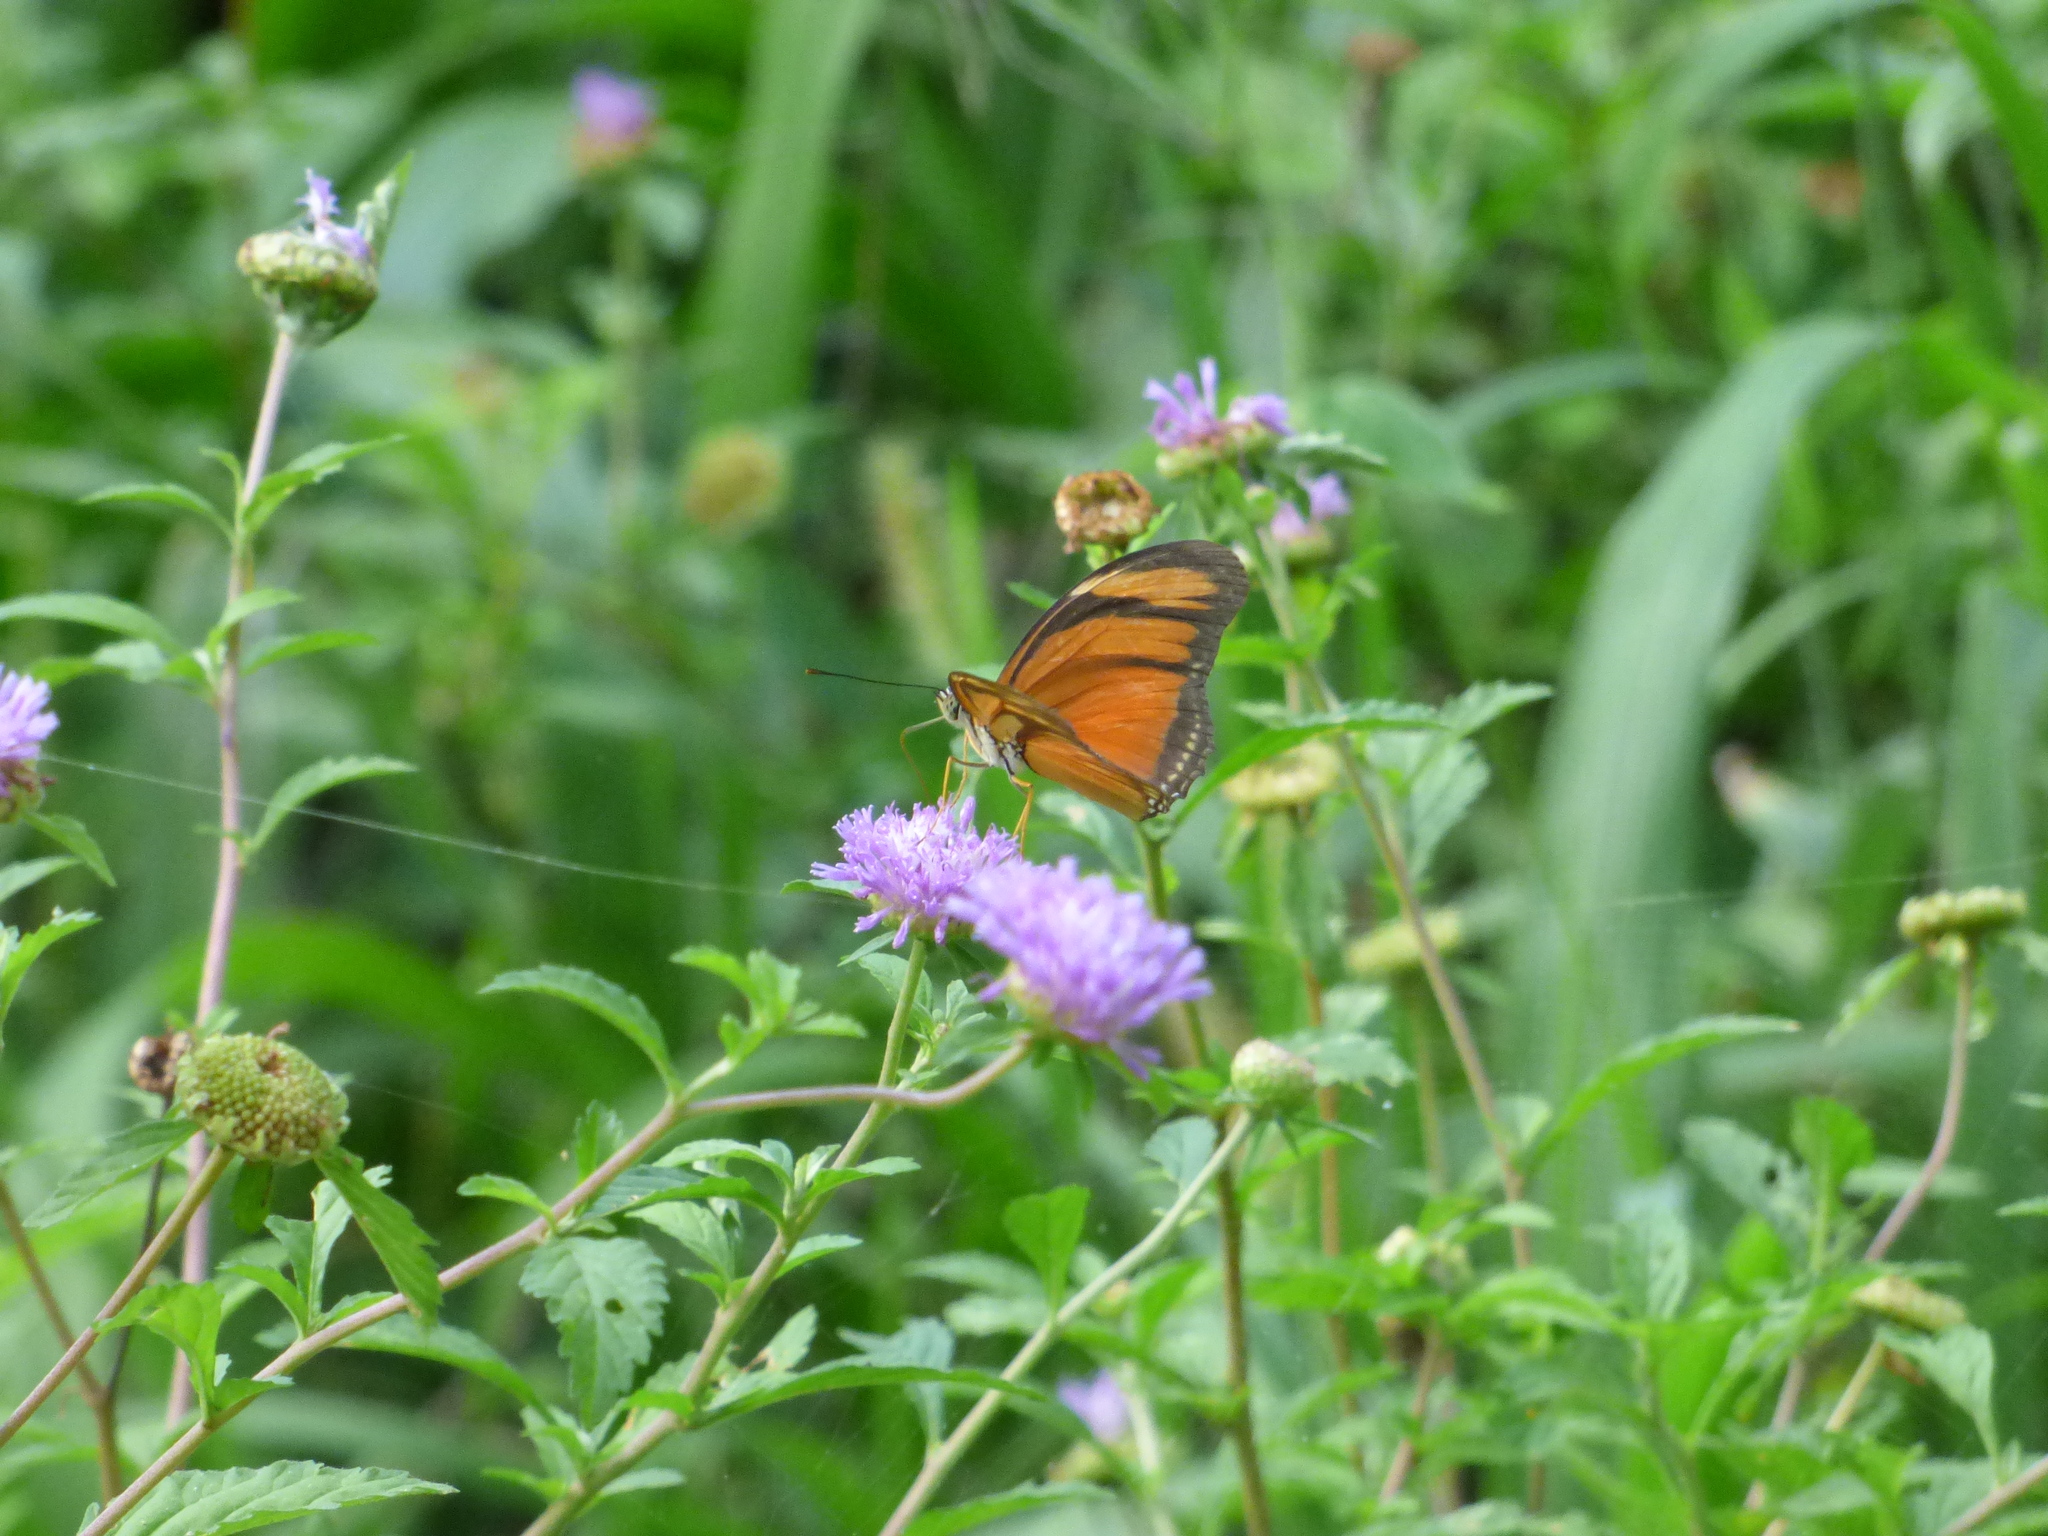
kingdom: Animalia
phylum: Arthropoda
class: Insecta
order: Lepidoptera
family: Nymphalidae
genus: Dryas
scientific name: Dryas iulia
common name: Flambeau
